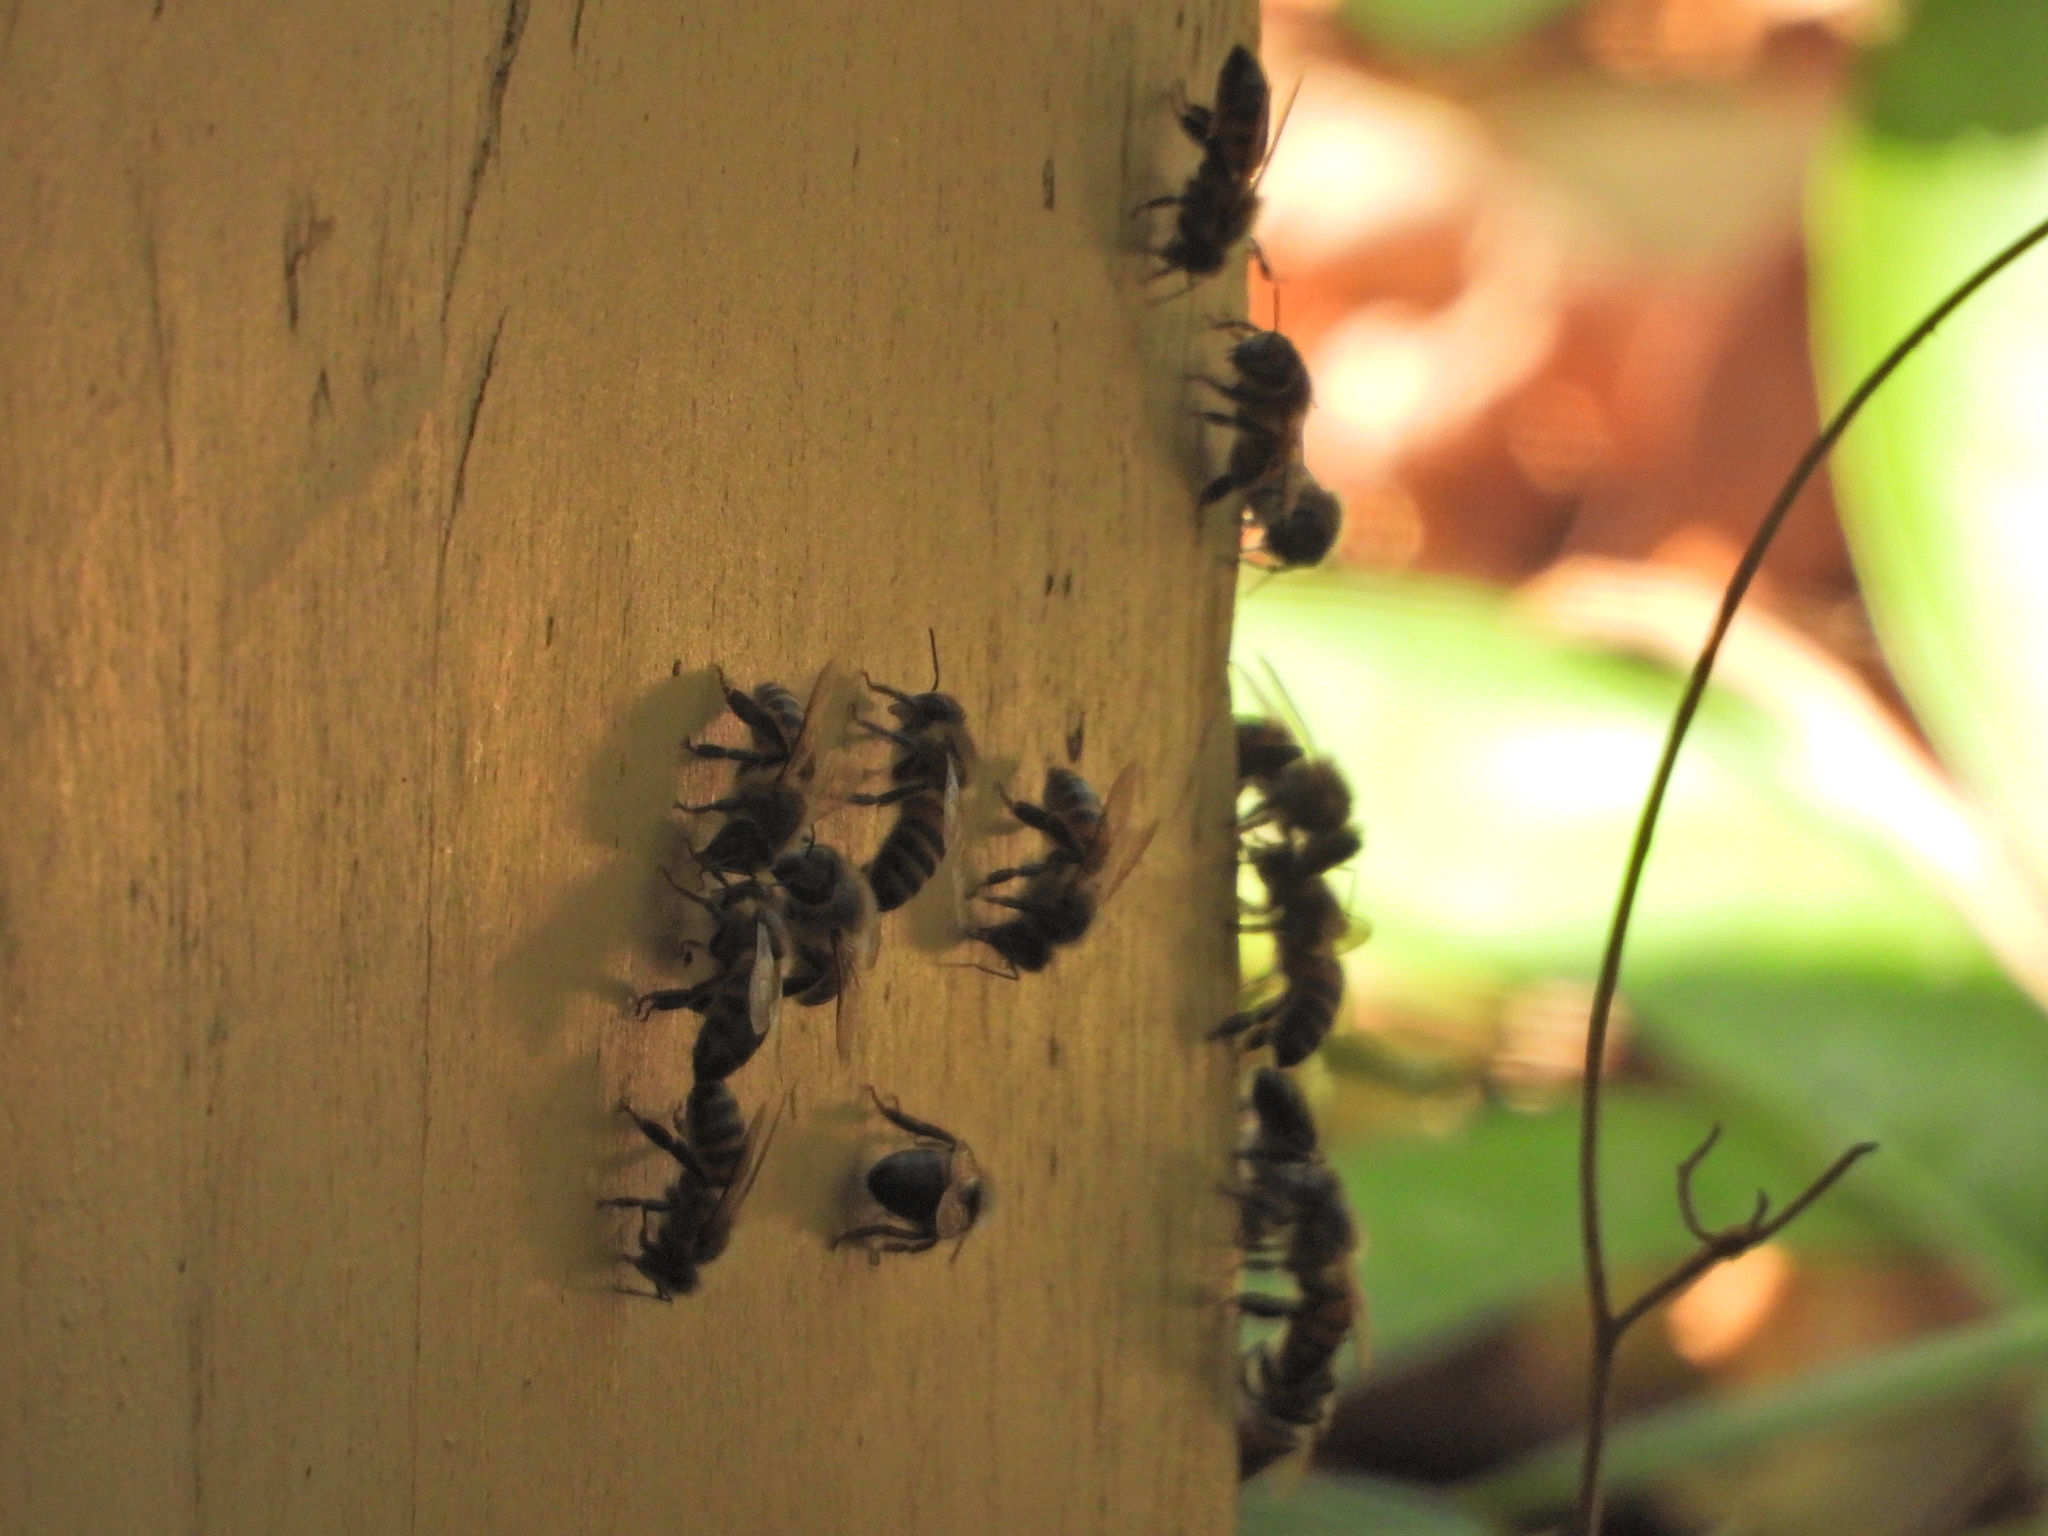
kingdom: Animalia
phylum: Arthropoda
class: Insecta
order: Hymenoptera
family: Apidae
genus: Apis
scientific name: Apis mellifera
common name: Honey bee
